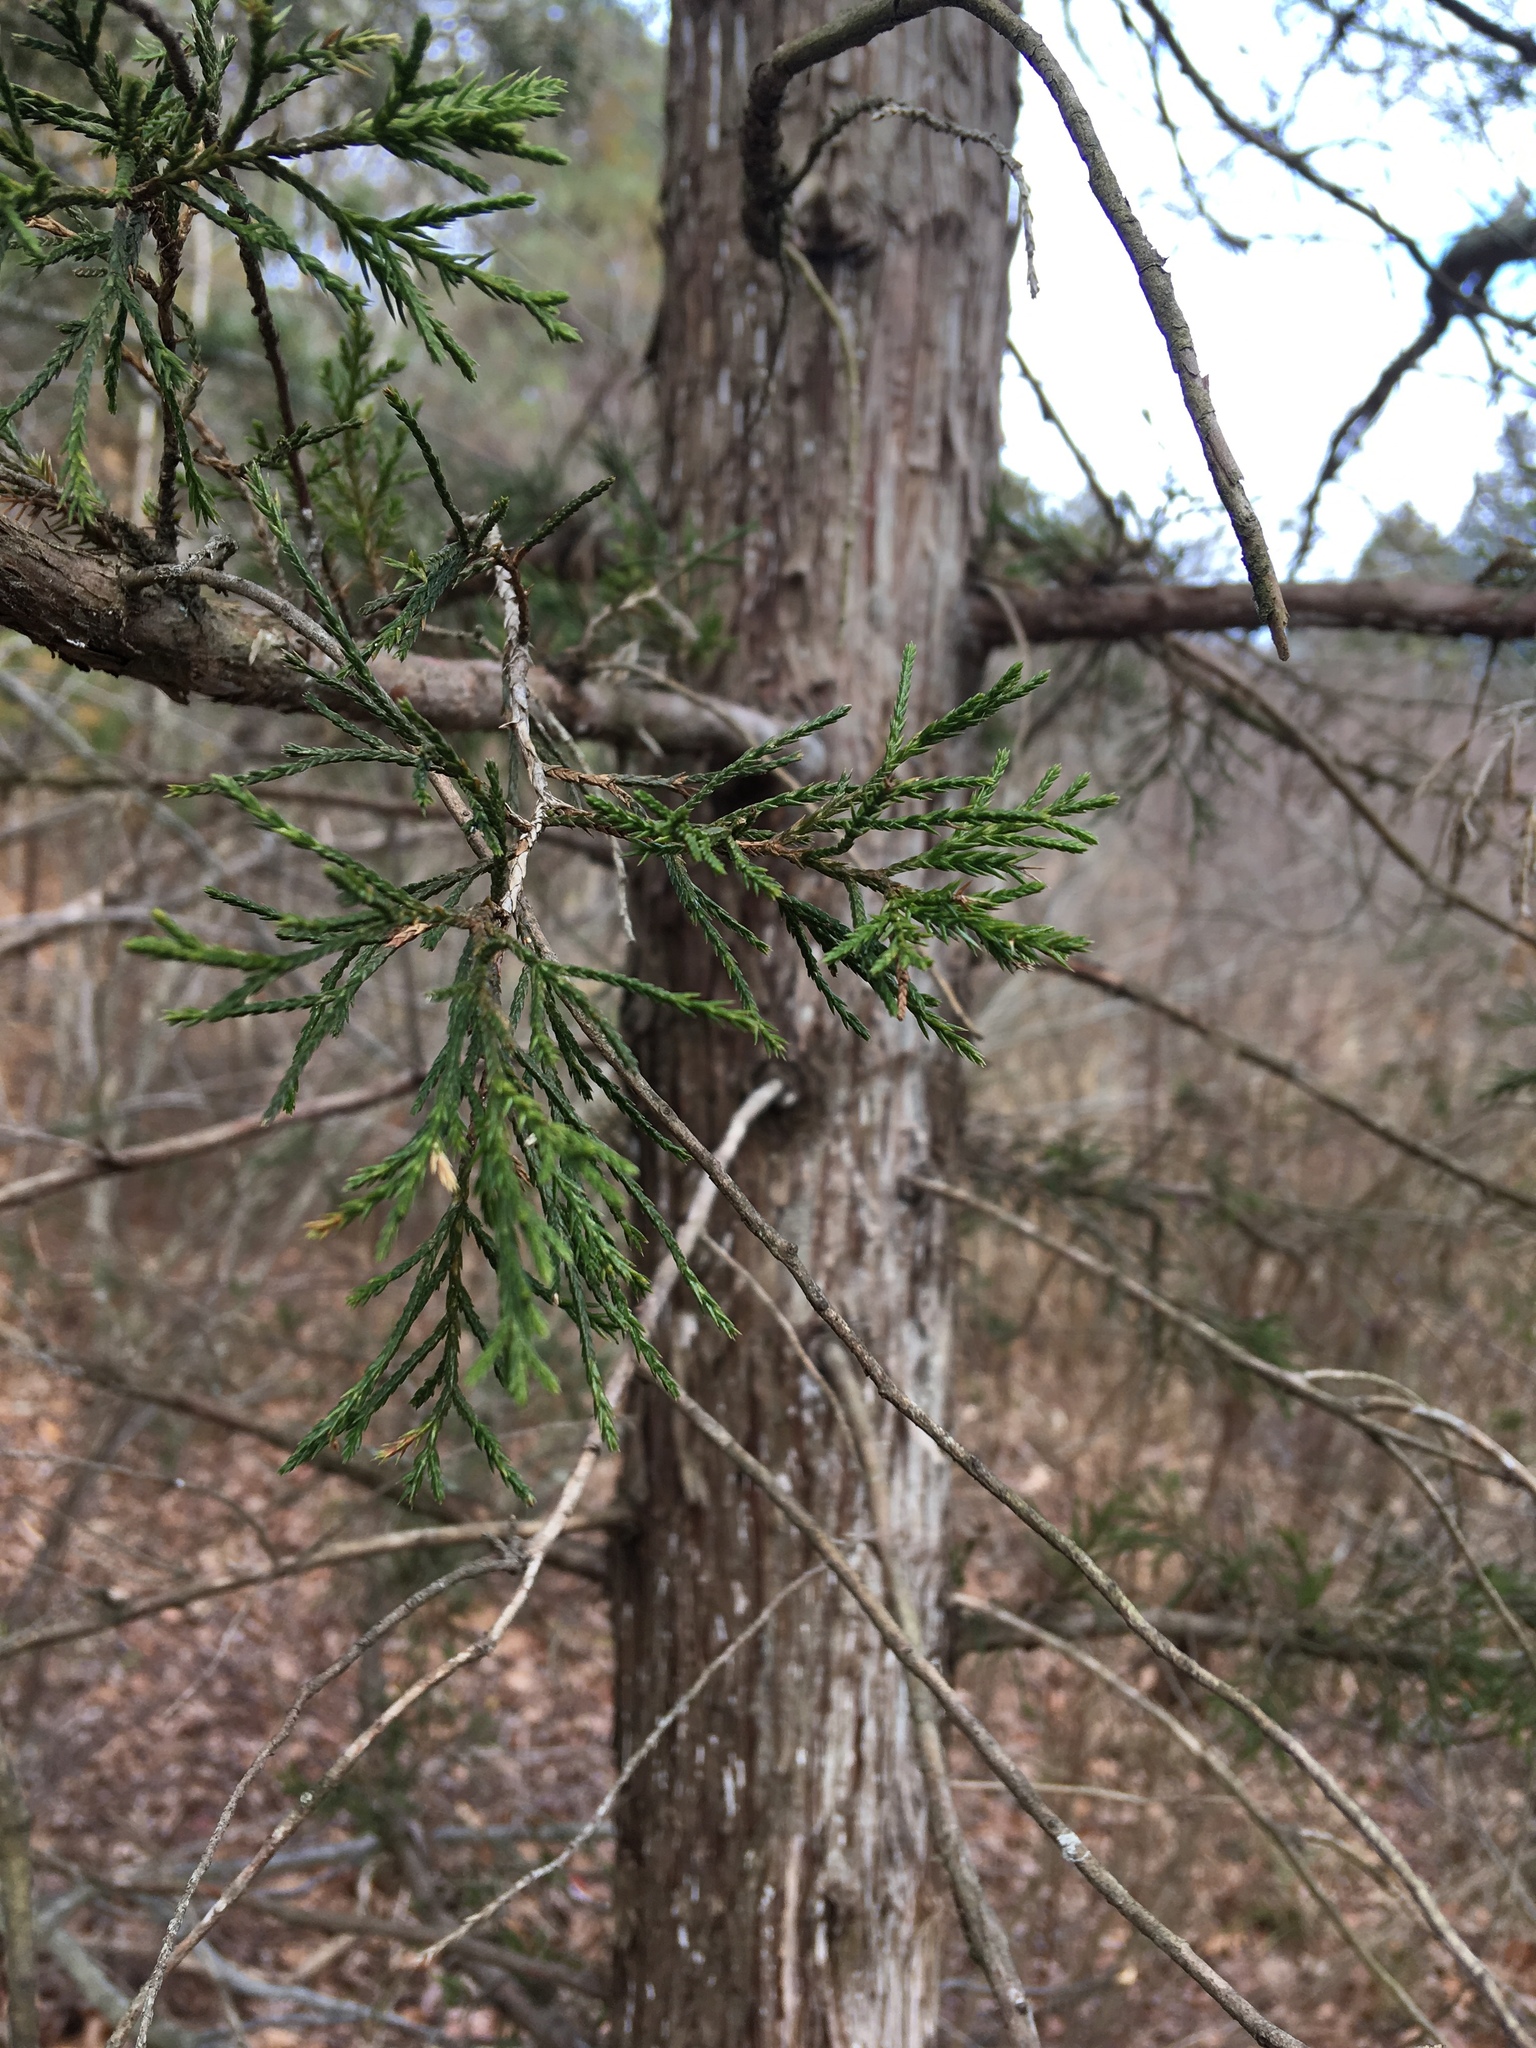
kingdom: Plantae
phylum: Tracheophyta
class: Pinopsida
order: Pinales
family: Cupressaceae
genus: Chamaecyparis
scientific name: Chamaecyparis thyoides
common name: Atlantic white cedar
